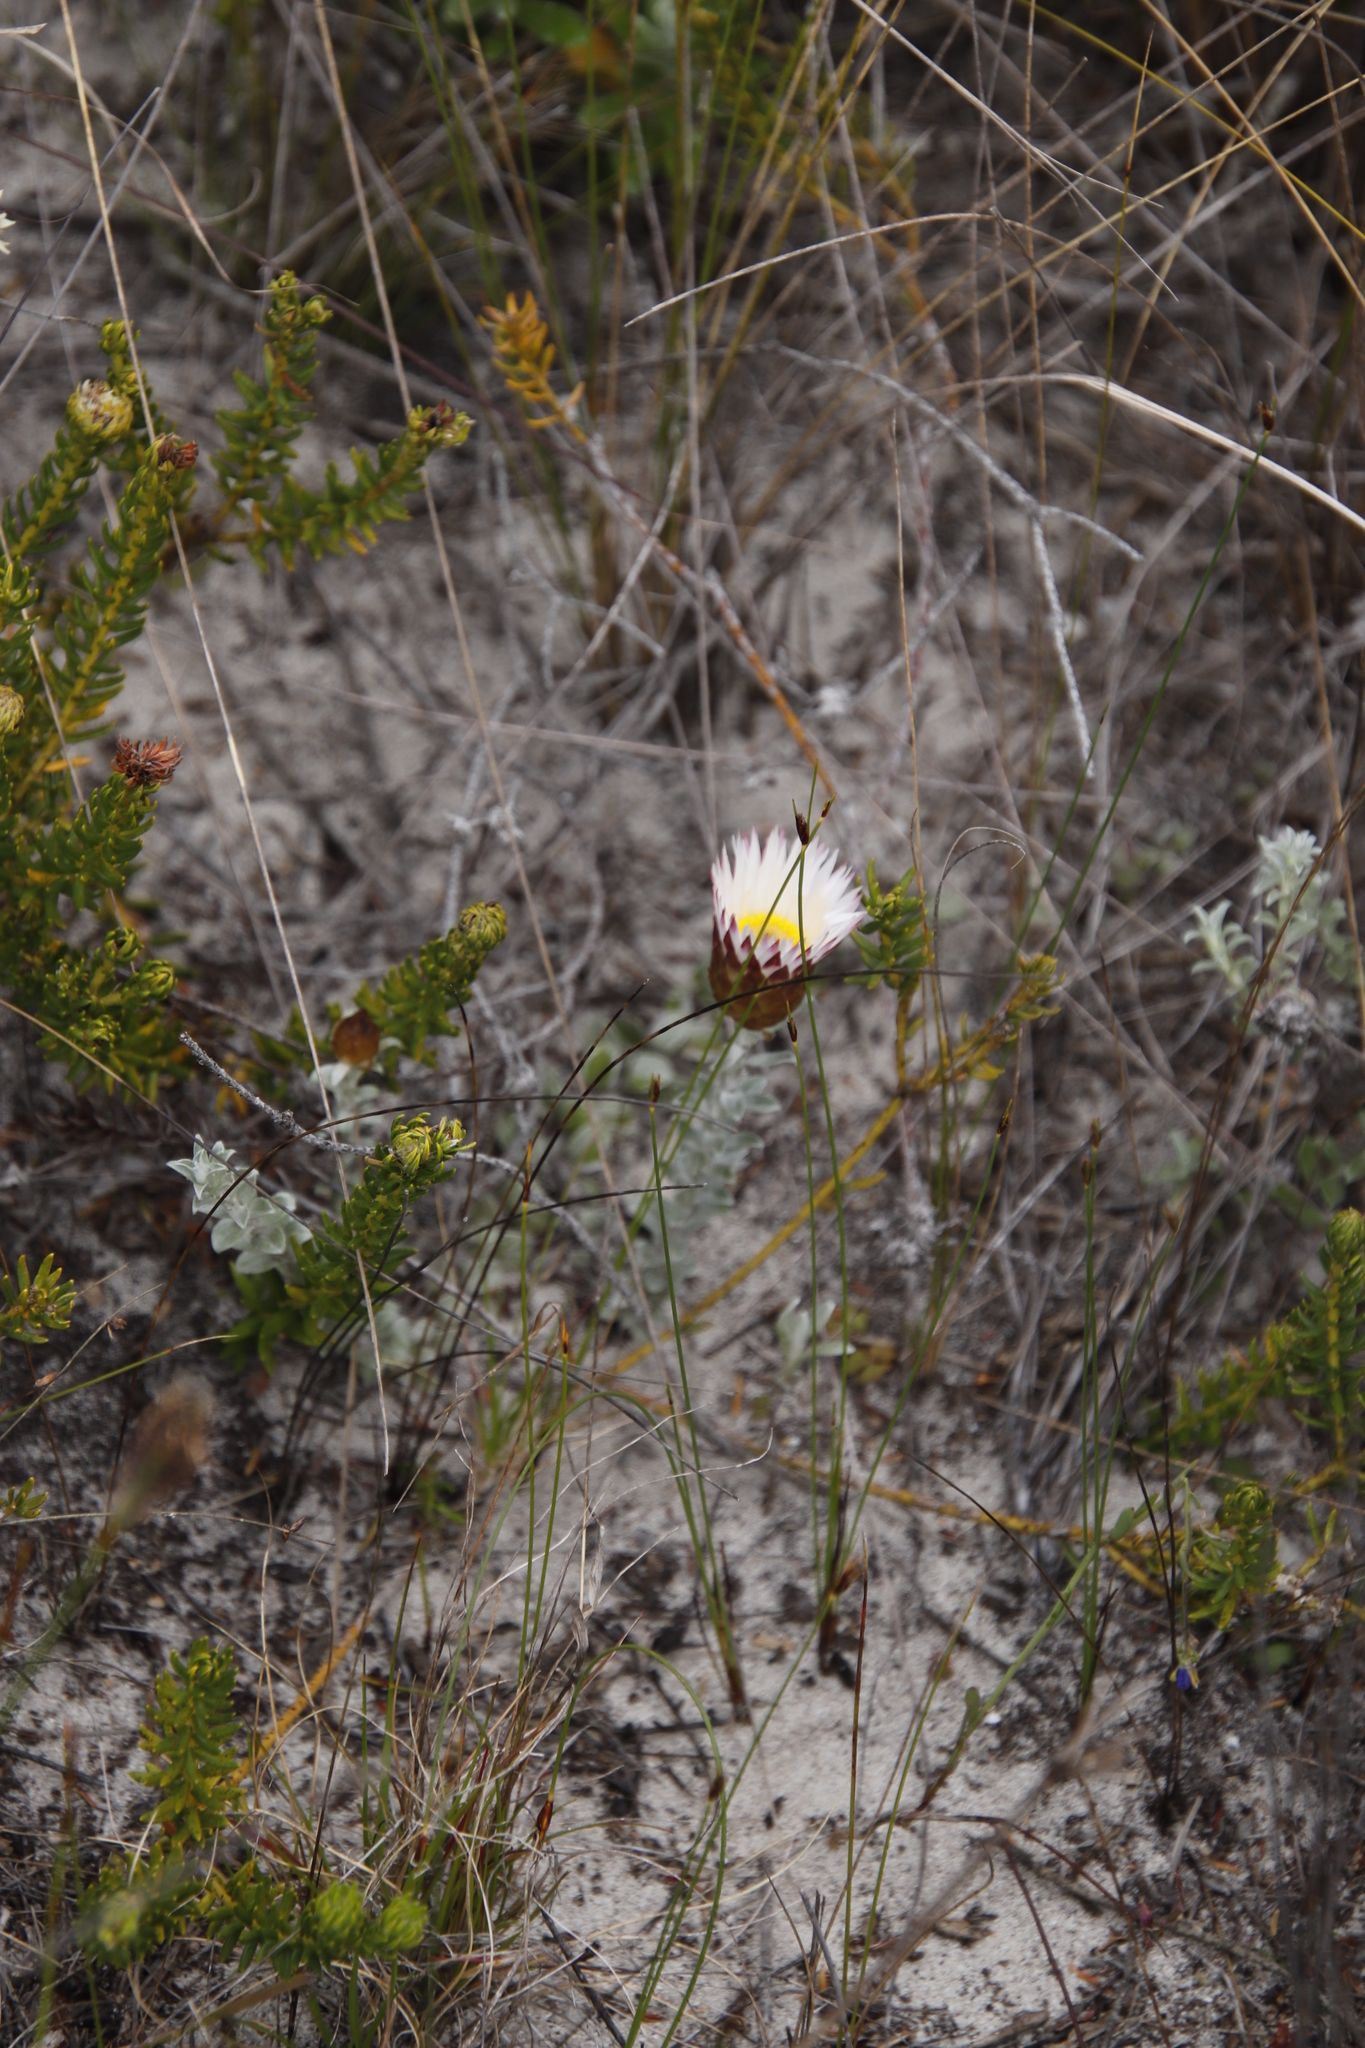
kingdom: Plantae
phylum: Tracheophyta
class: Magnoliopsida
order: Asterales
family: Asteraceae
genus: Helichrysum
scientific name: Helichrysum retortum
